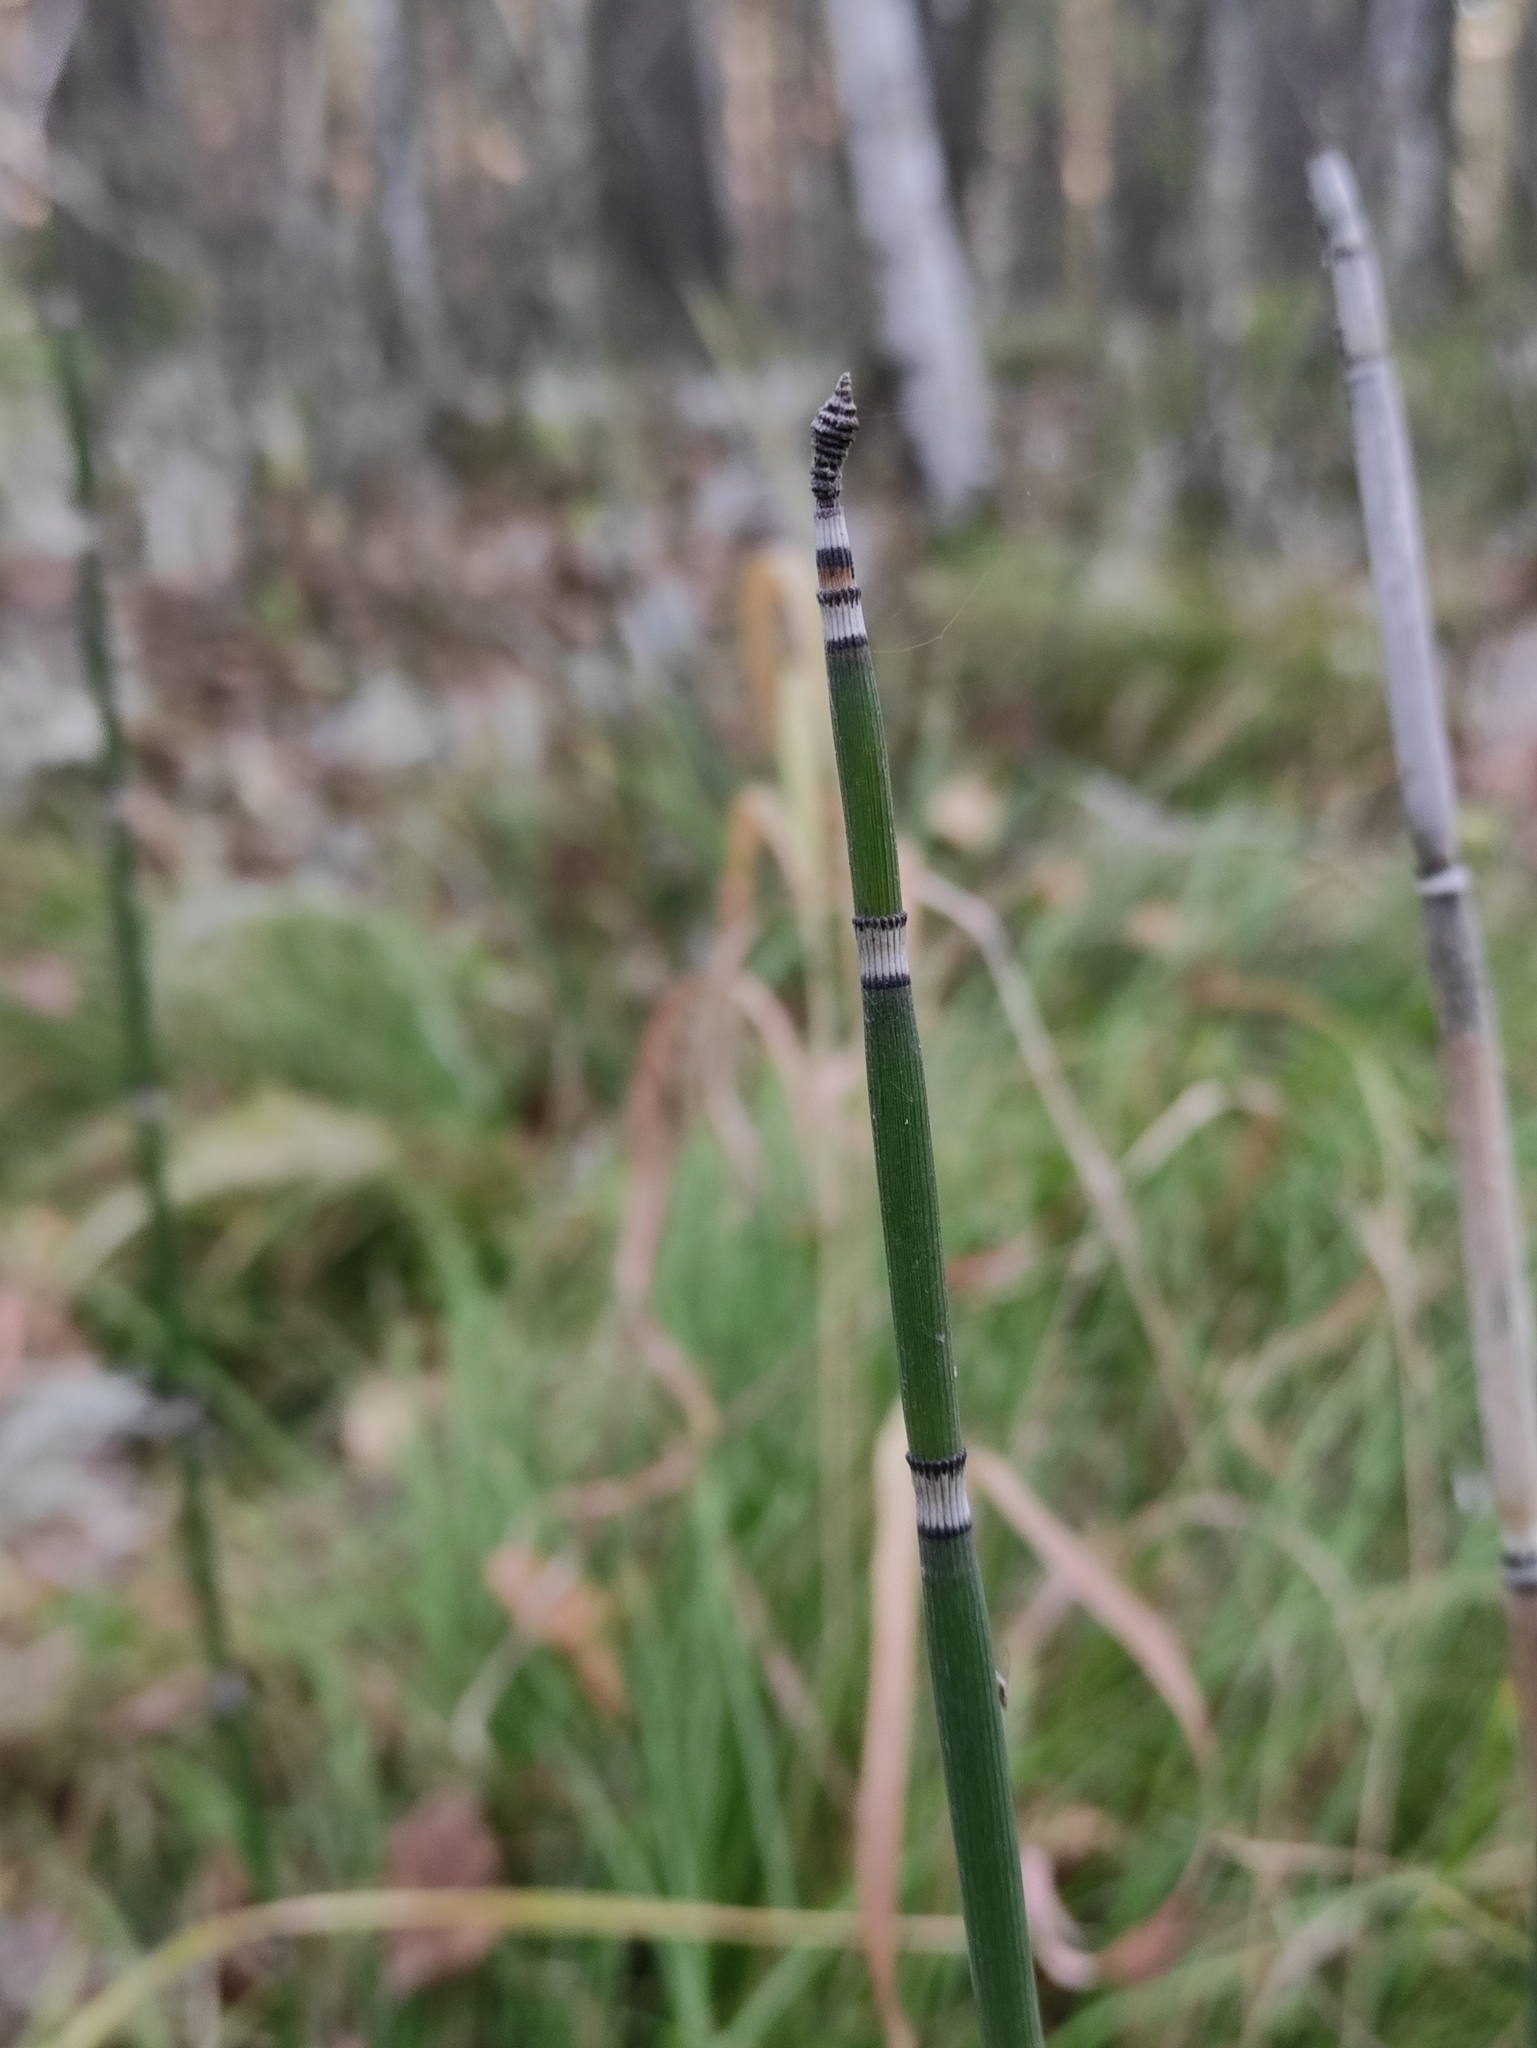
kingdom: Plantae
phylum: Tracheophyta
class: Polypodiopsida
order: Equisetales
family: Equisetaceae
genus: Equisetum
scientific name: Equisetum hyemale
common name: Rough horsetail
